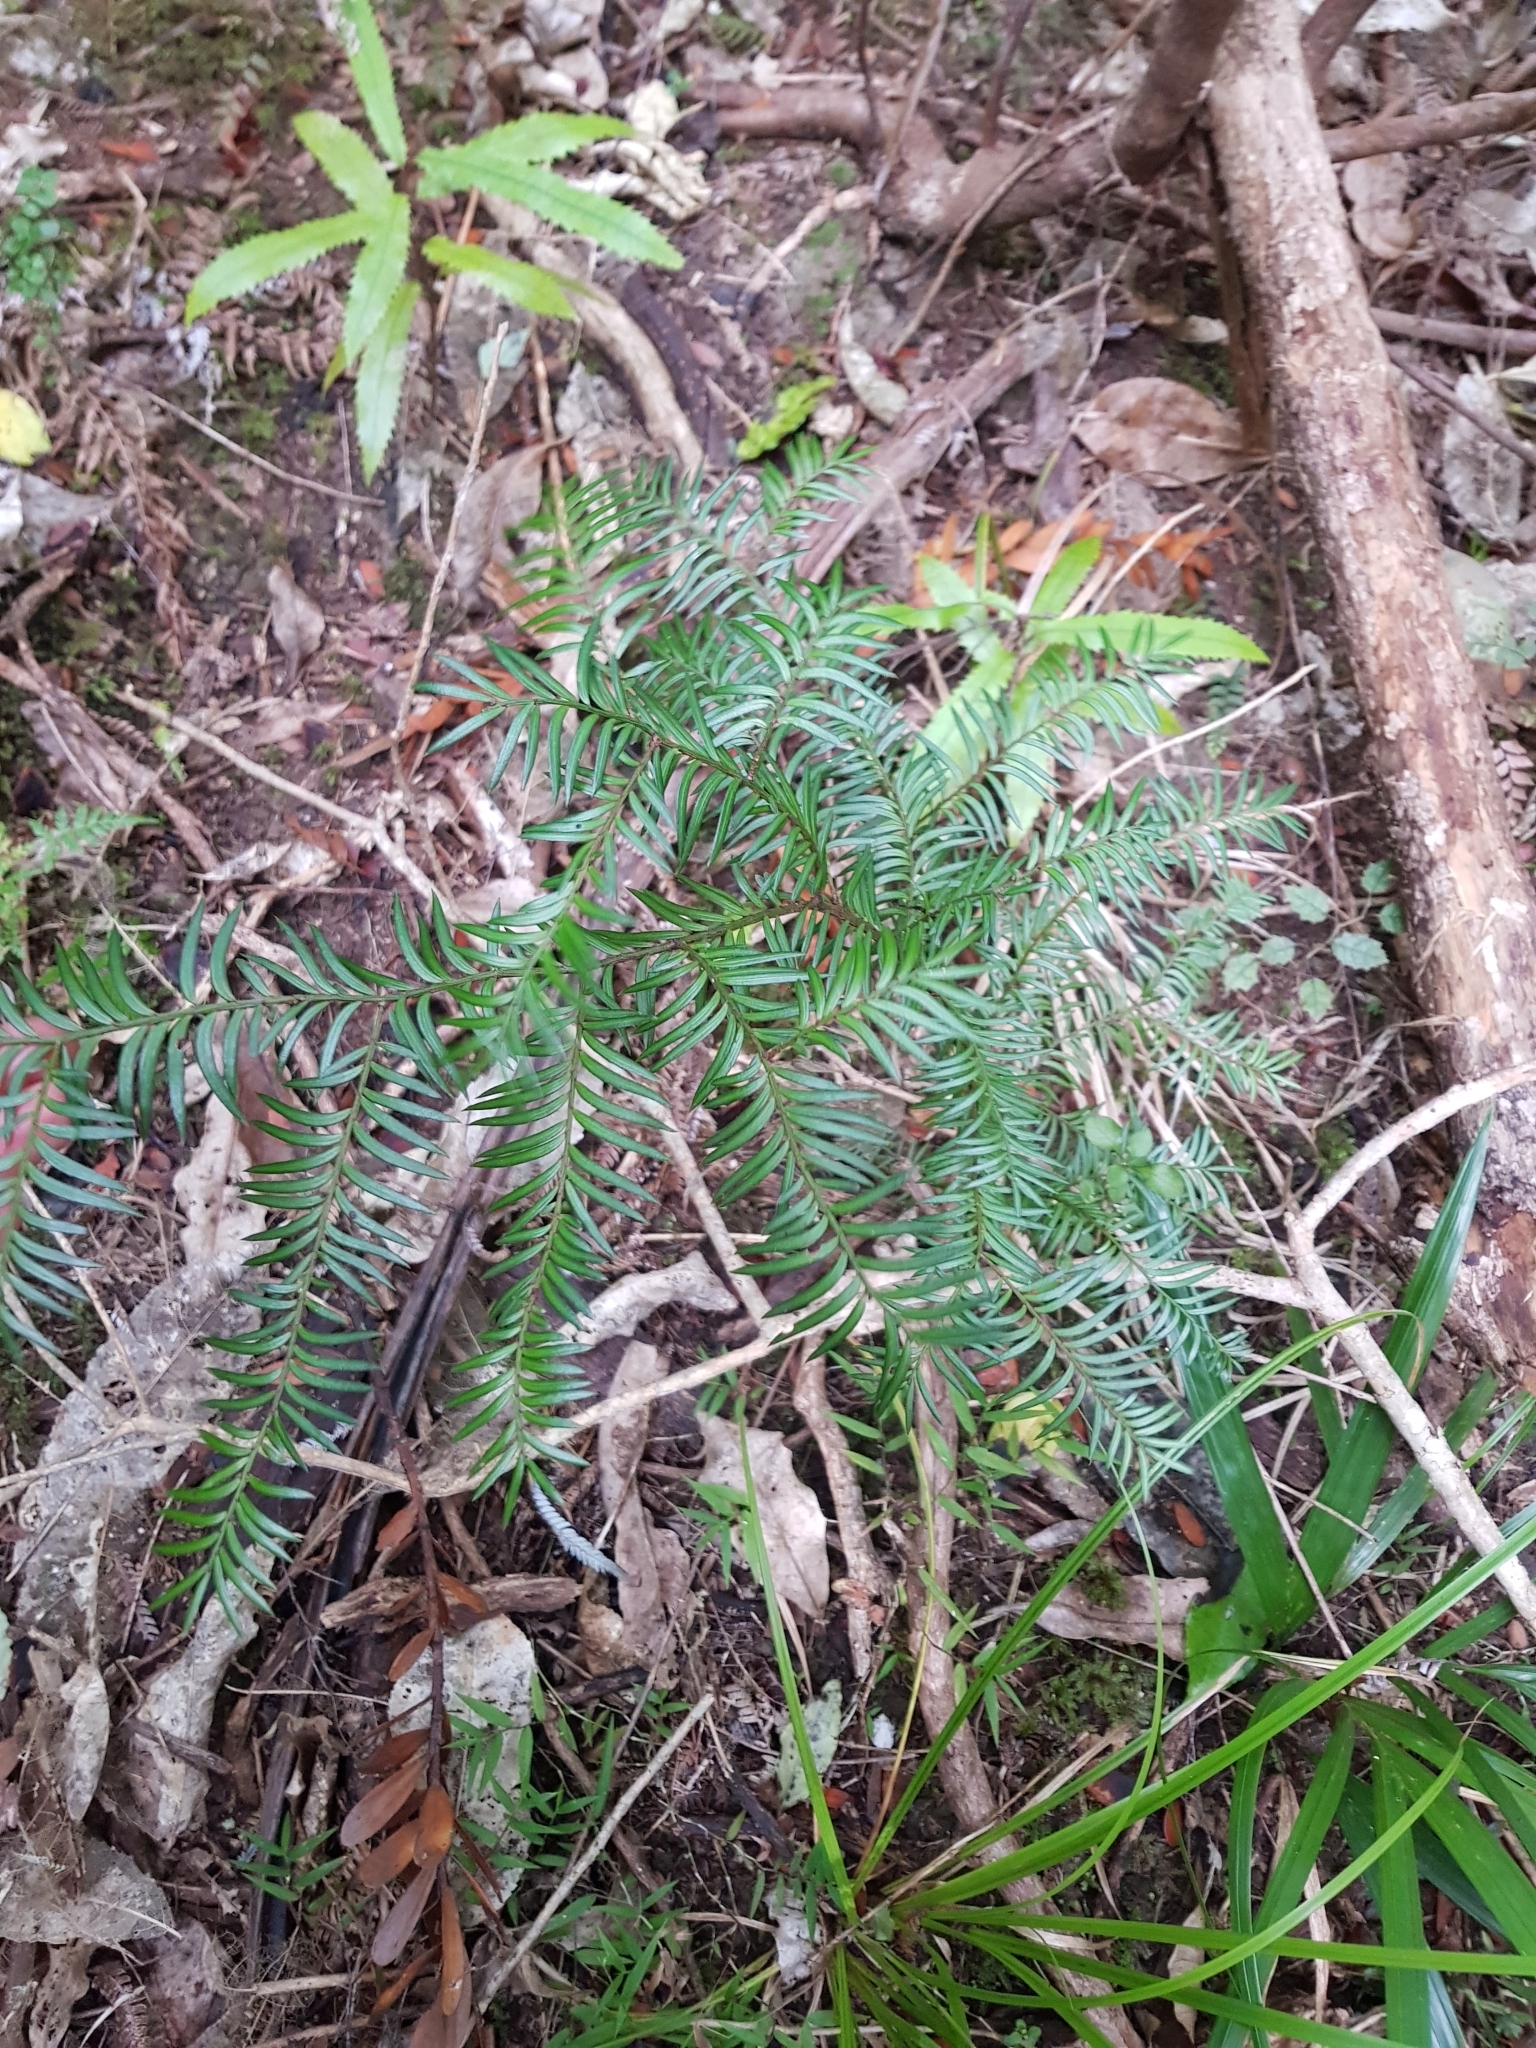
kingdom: Plantae
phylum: Tracheophyta
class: Pinopsida
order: Pinales
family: Podocarpaceae
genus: Prumnopitys
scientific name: Prumnopitys ferruginea
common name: Brown pine
